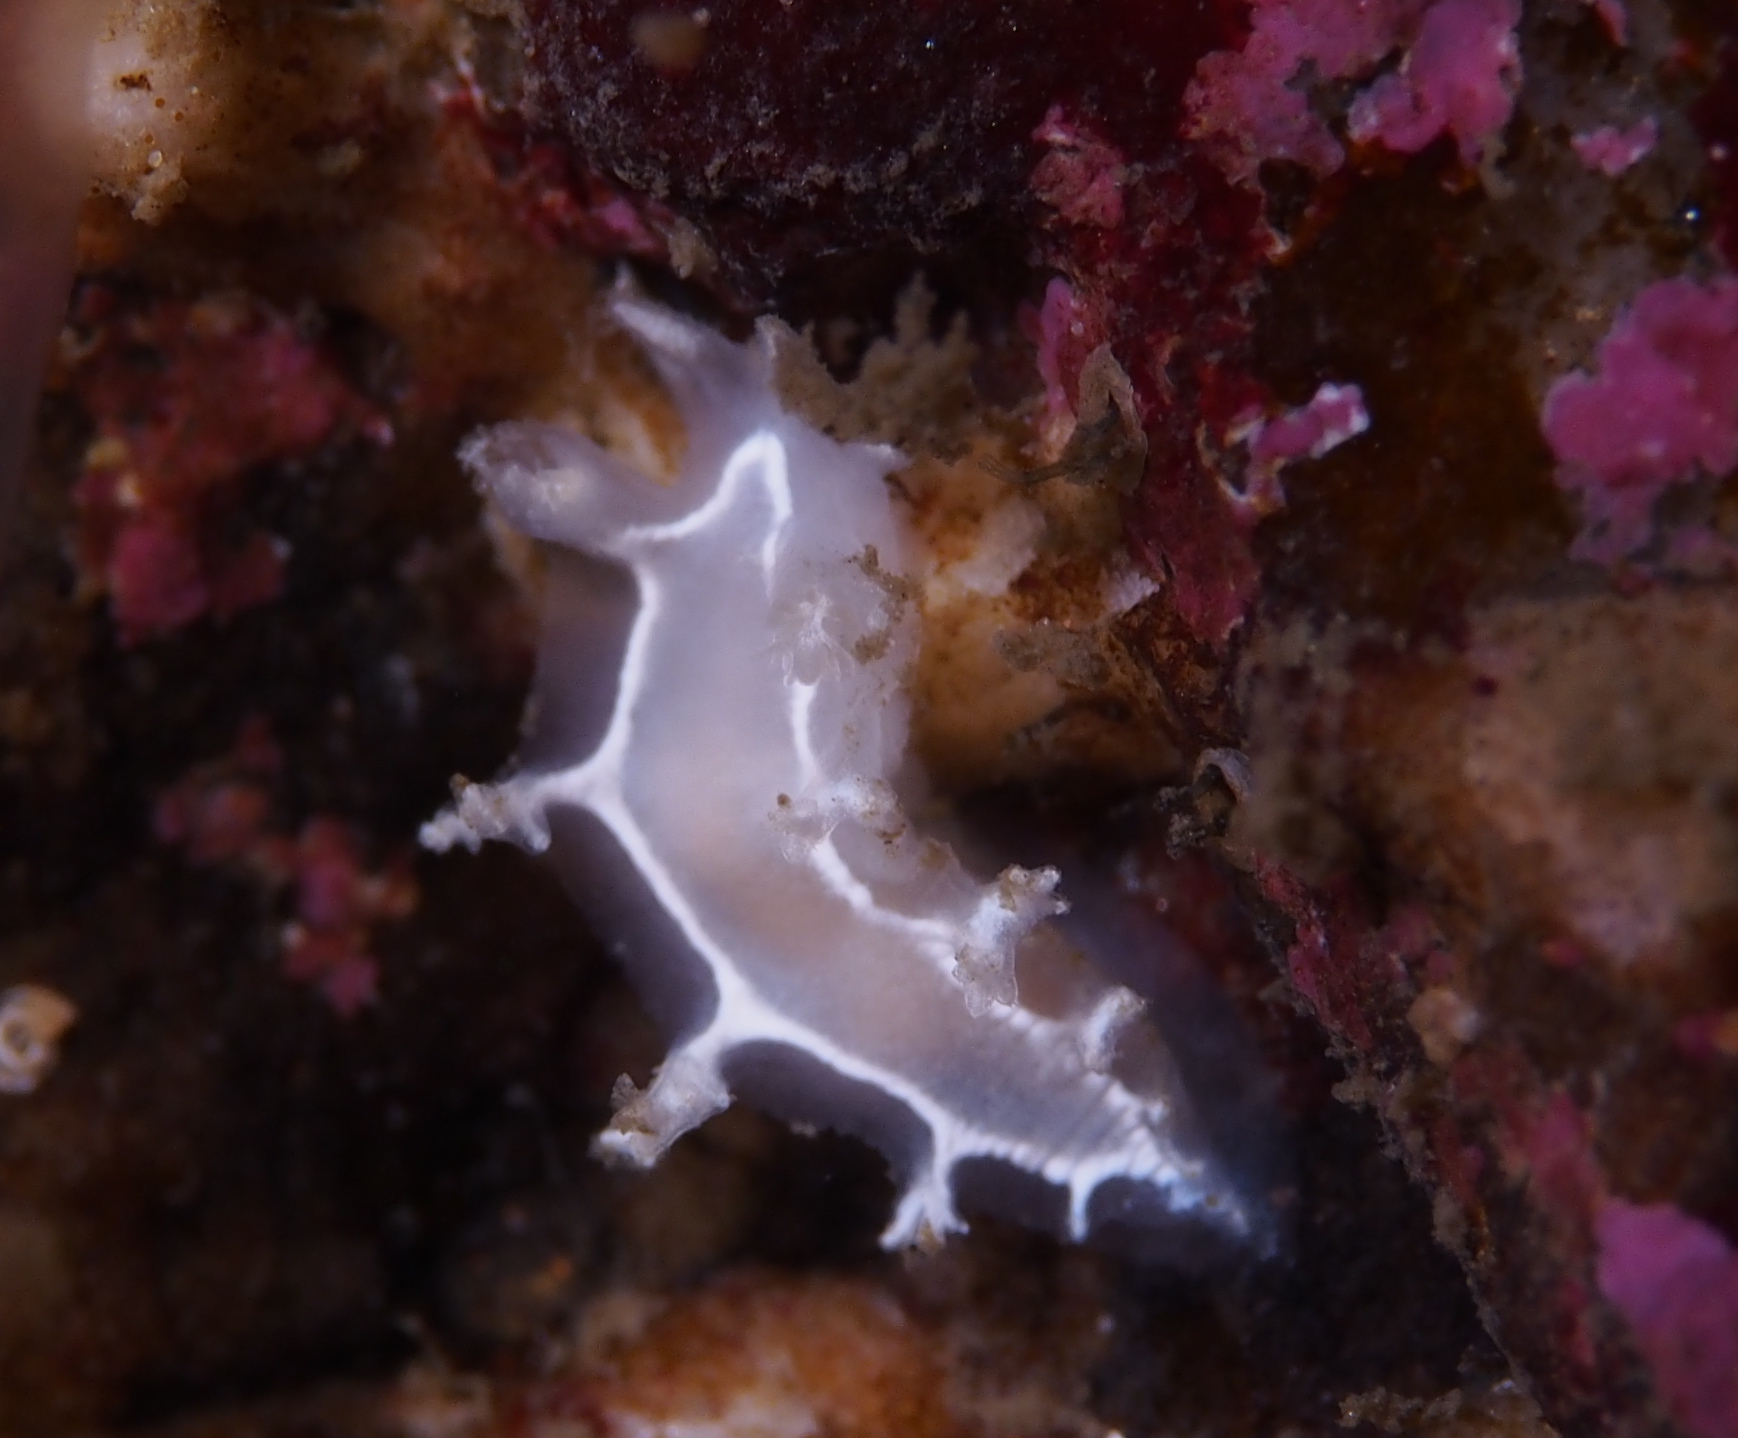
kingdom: Animalia
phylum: Mollusca
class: Gastropoda
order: Nudibranchia
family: Tritoniidae
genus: Duvaucelia
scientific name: Duvaucelia lineata
